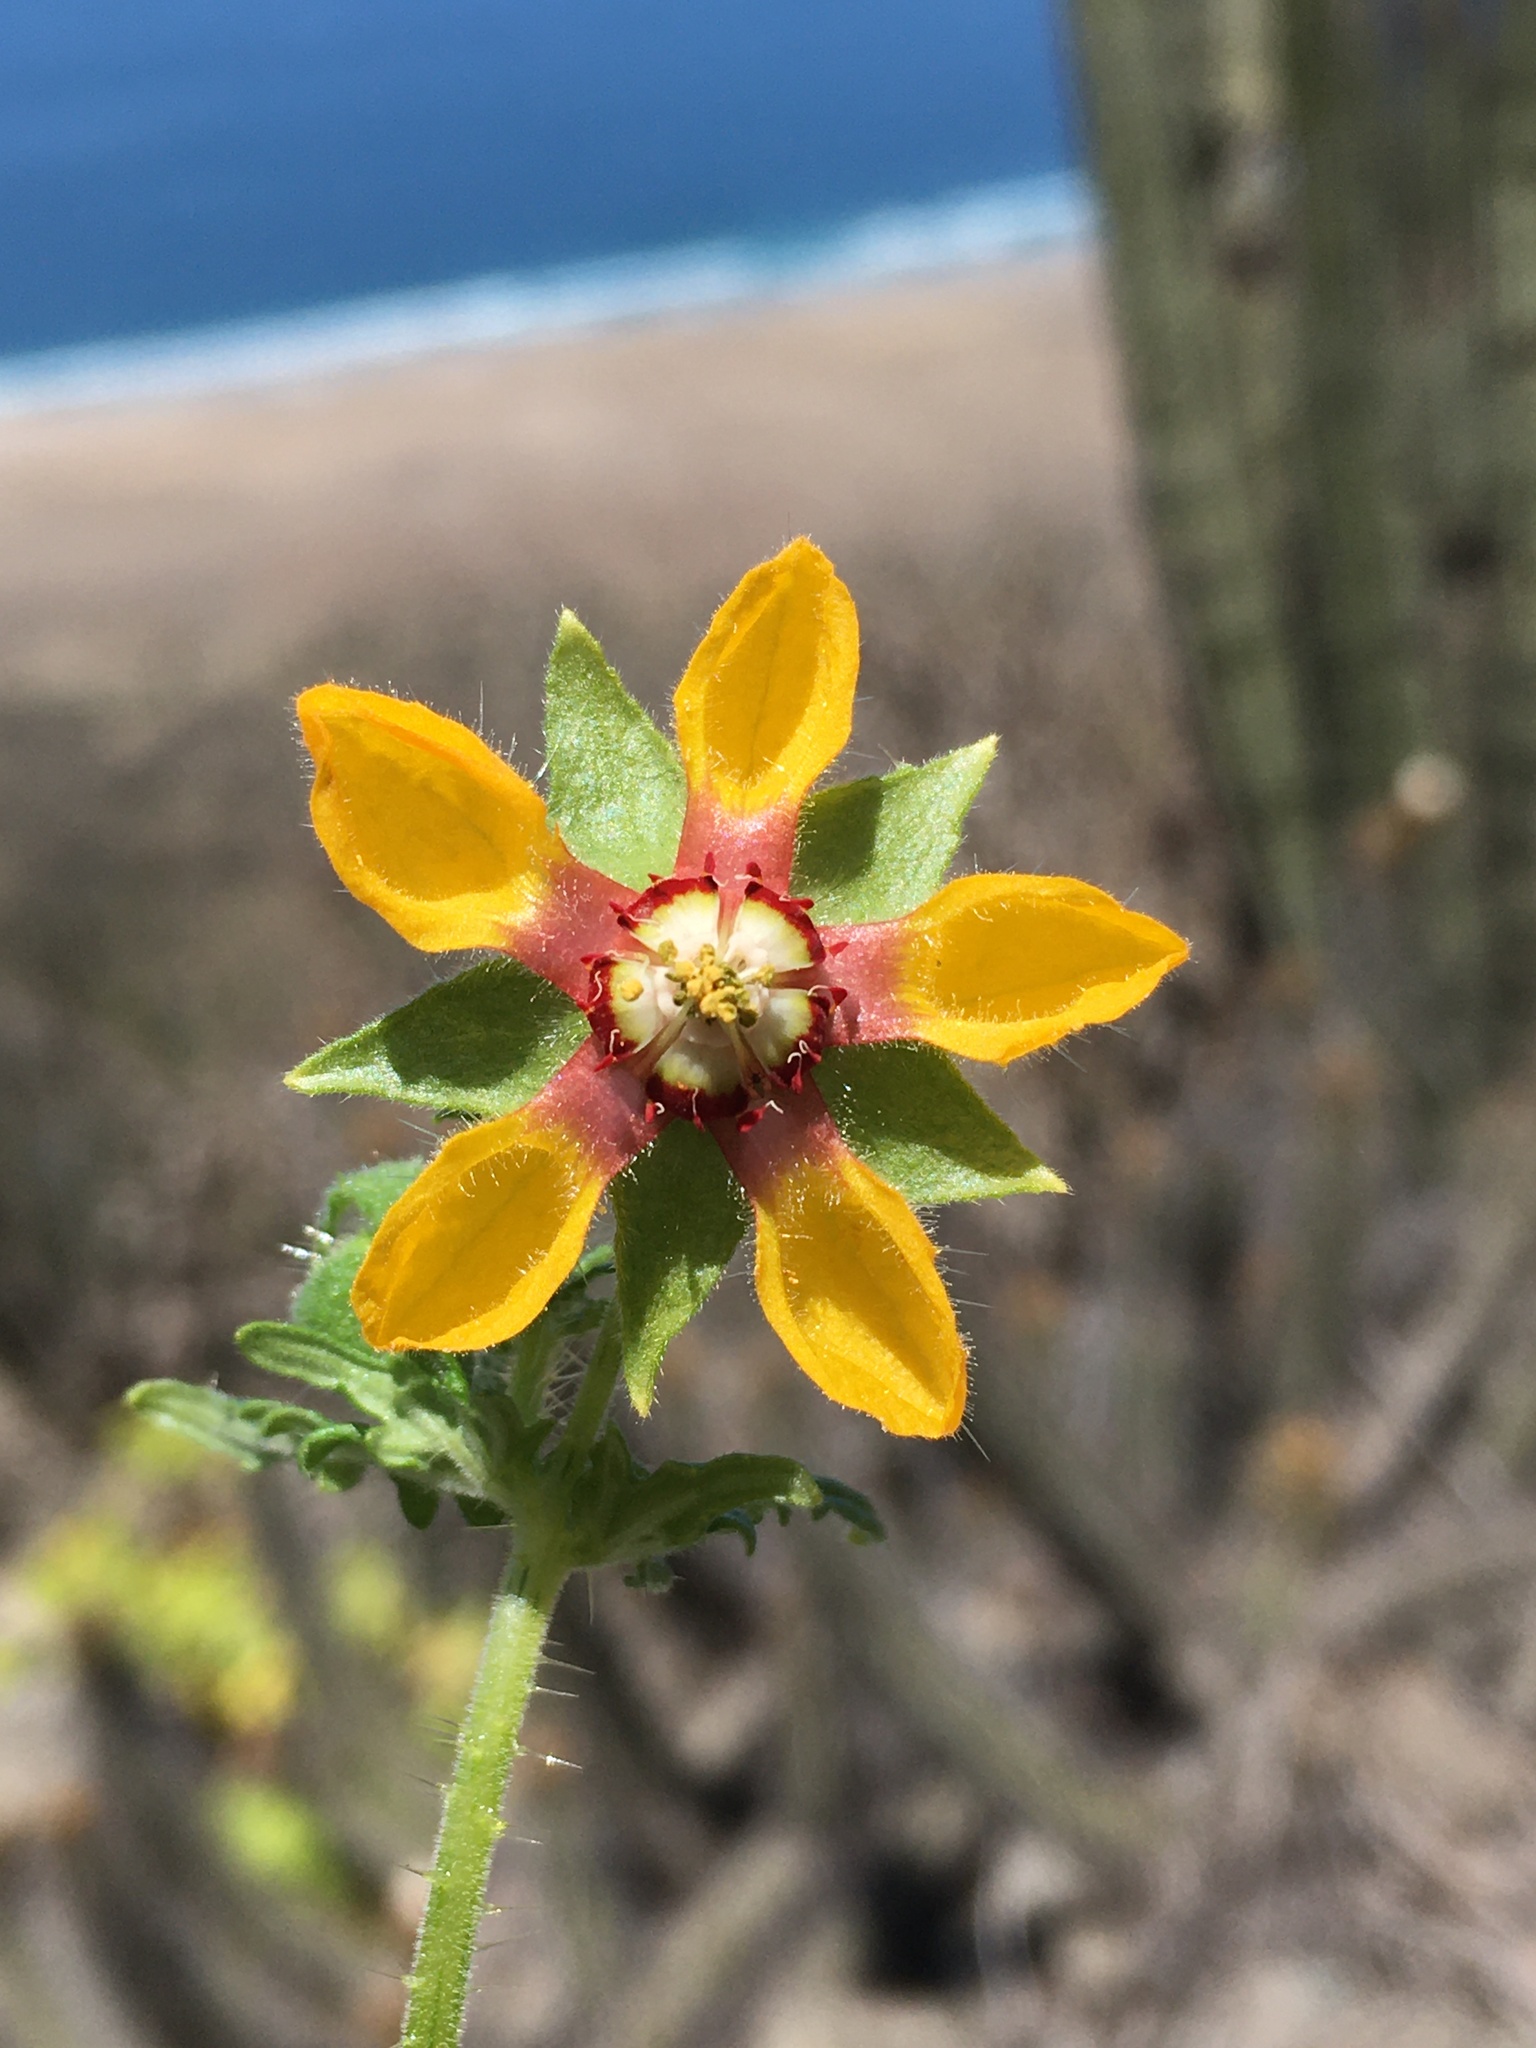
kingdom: Plantae
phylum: Tracheophyta
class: Magnoliopsida
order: Cornales
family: Loasaceae
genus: Loasa
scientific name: Loasa nitida
